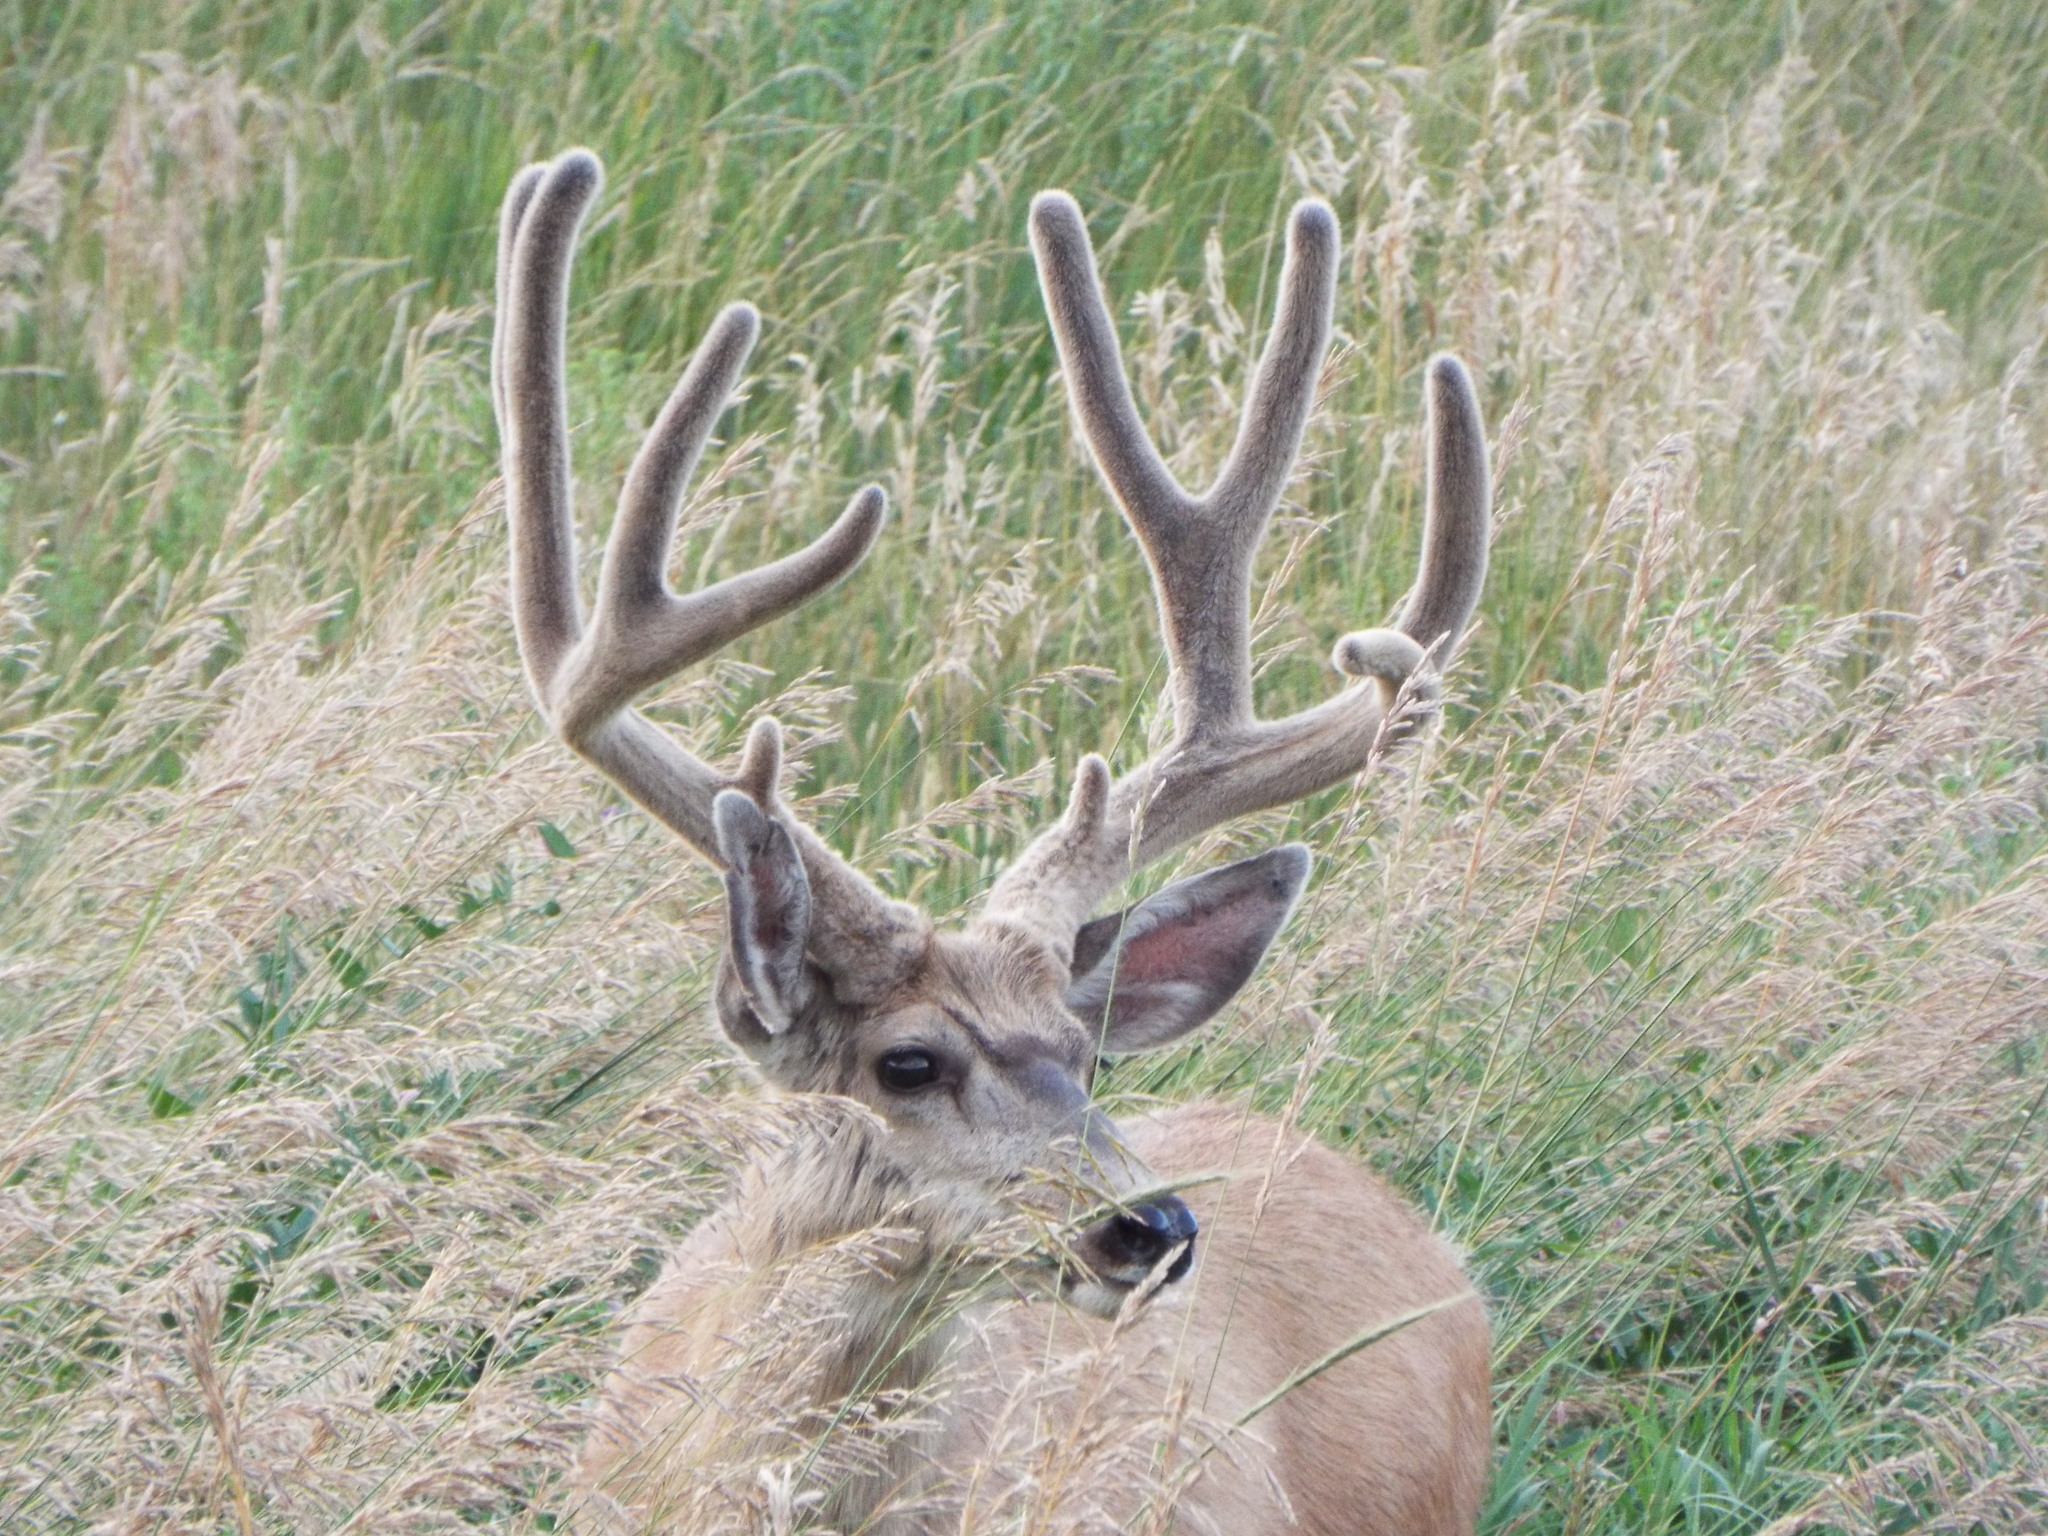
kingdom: Animalia
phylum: Chordata
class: Mammalia
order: Artiodactyla
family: Cervidae
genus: Odocoileus
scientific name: Odocoileus hemionus
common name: Mule deer
